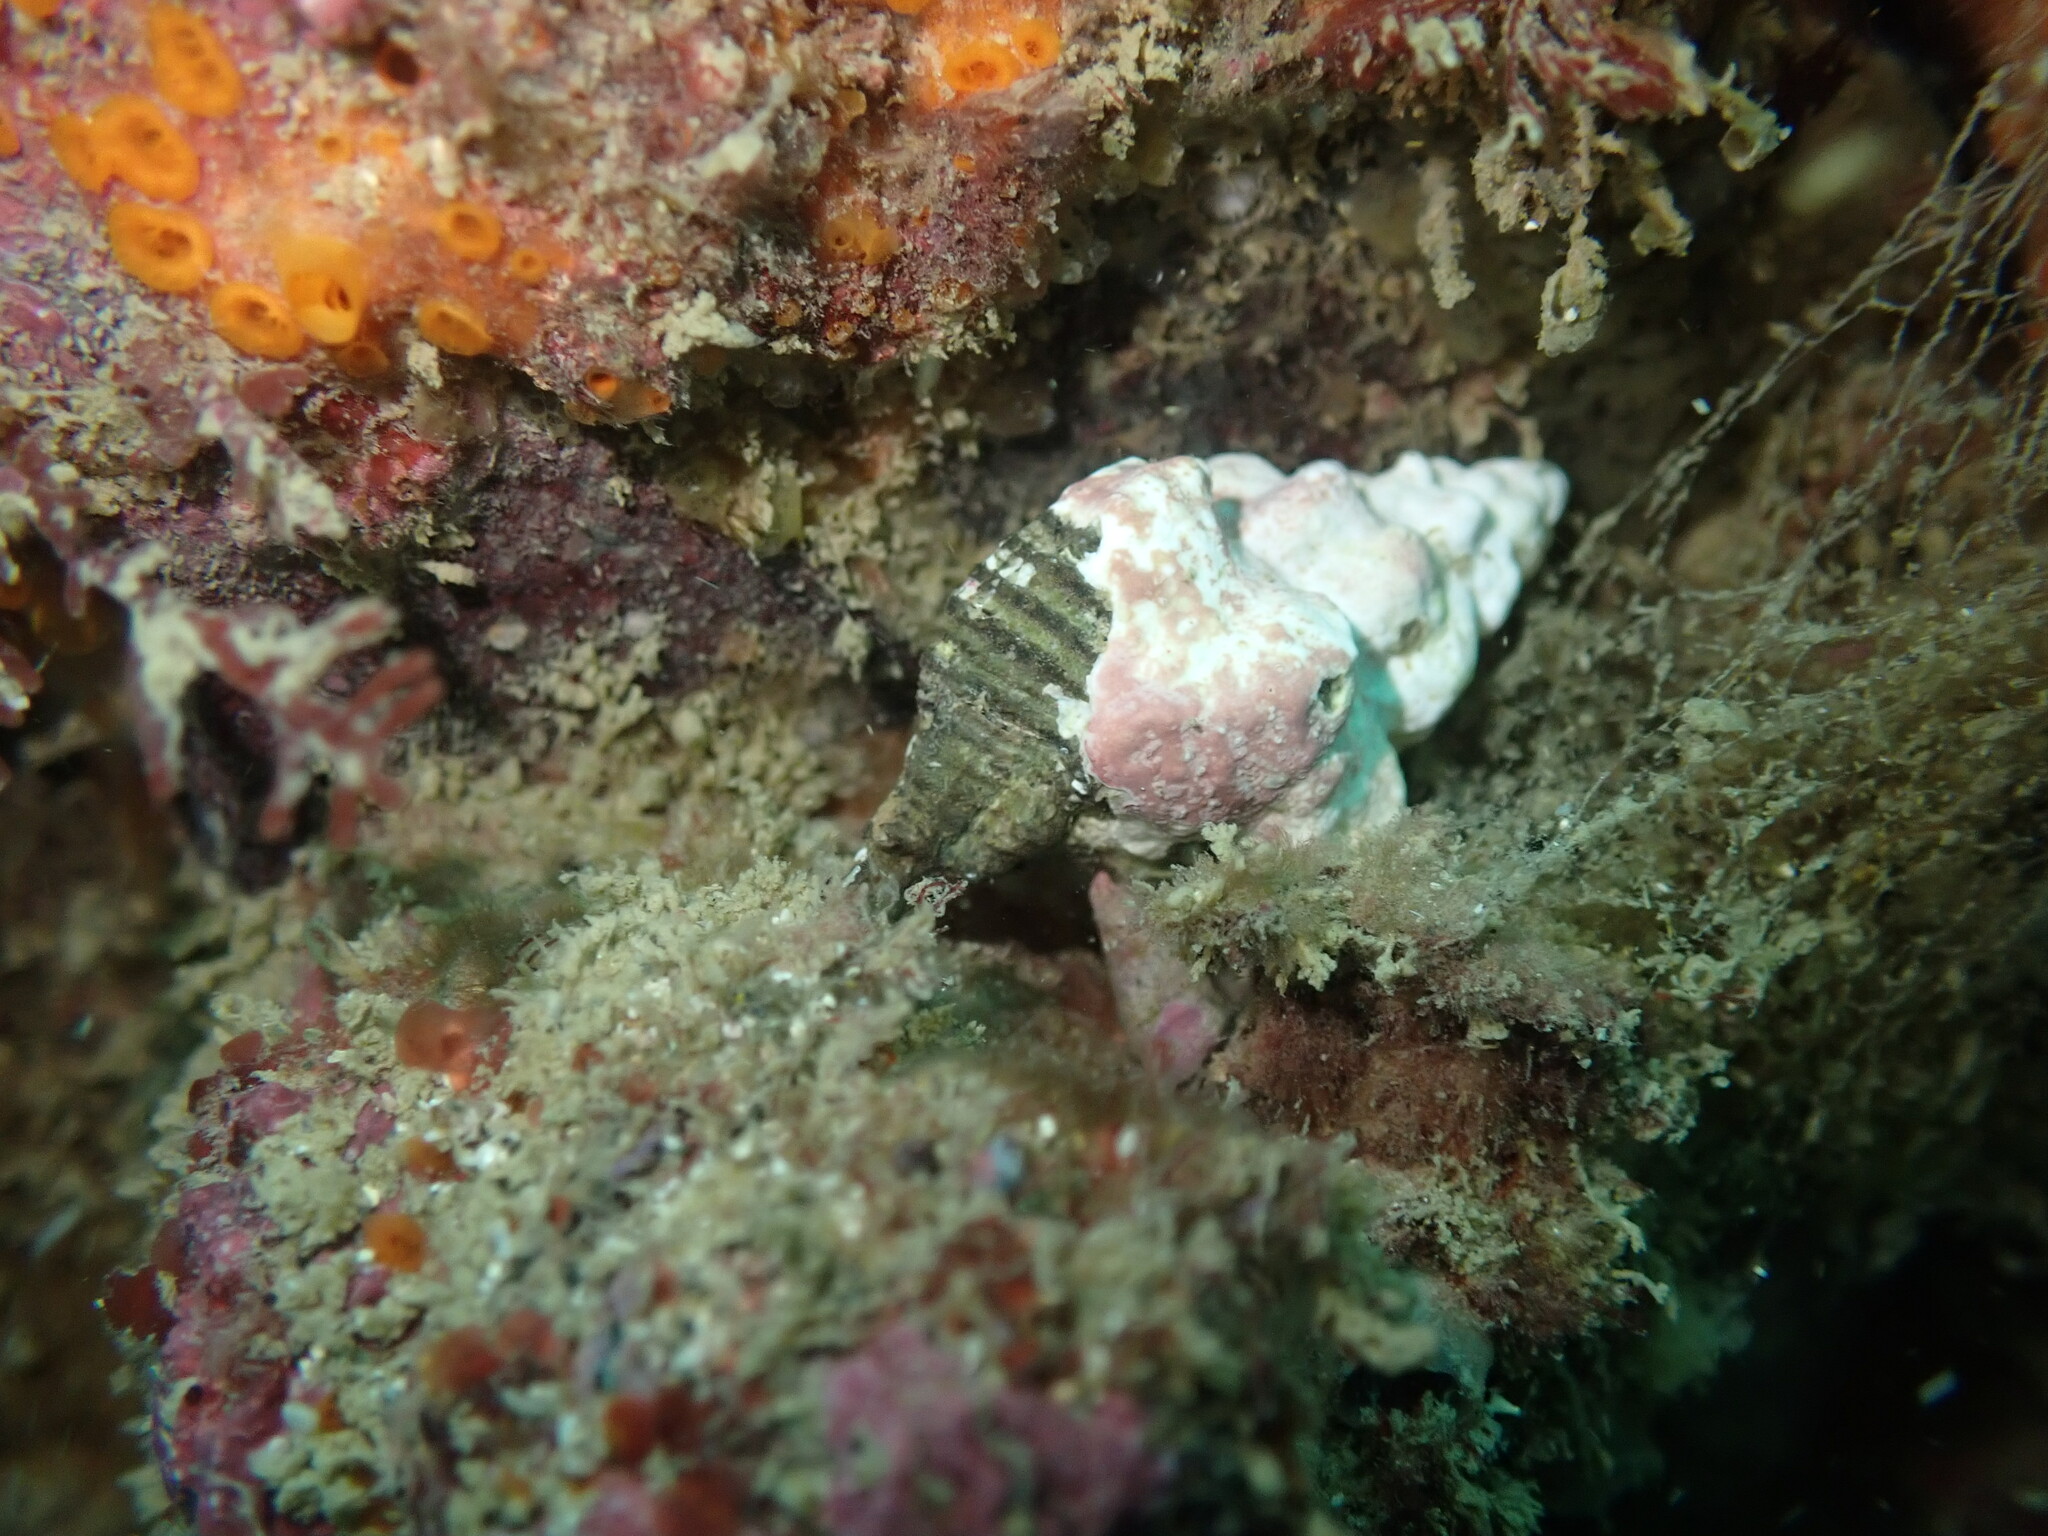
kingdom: Animalia
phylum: Mollusca
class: Gastropoda
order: Neogastropoda
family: Muricidae
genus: Murexsul
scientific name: Murexsul octogonus
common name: Octagon murex
